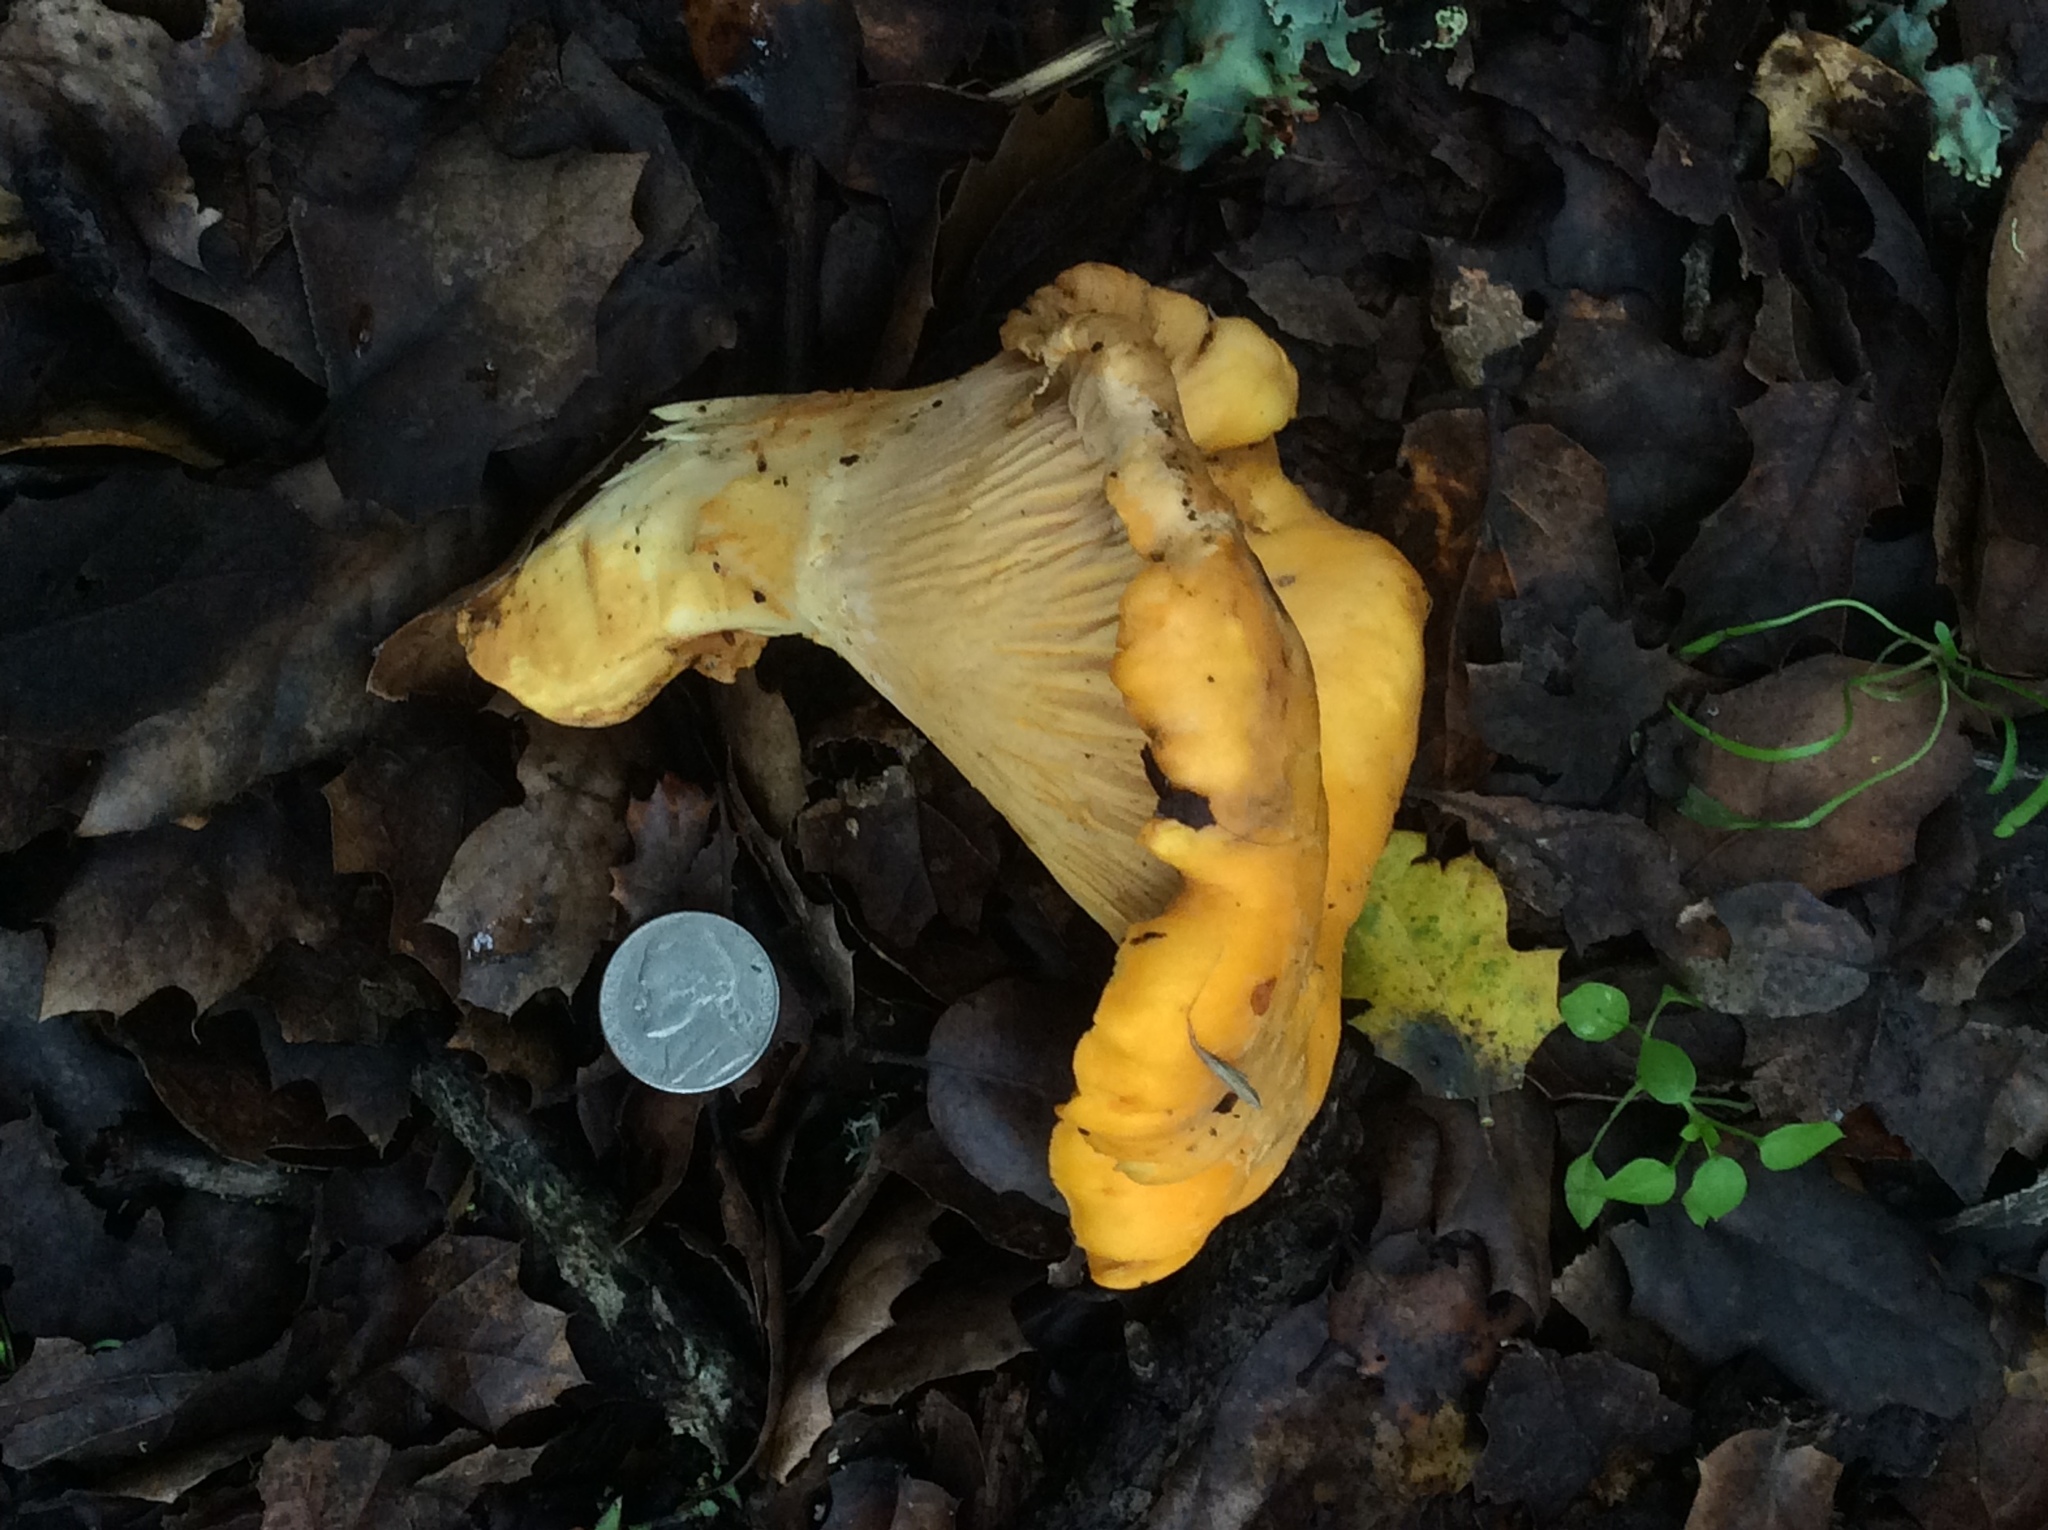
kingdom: Fungi
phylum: Basidiomycota
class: Agaricomycetes
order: Cantharellales
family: Hydnaceae
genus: Cantharellus
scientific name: Cantharellus californicus
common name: California golden chanterelle
